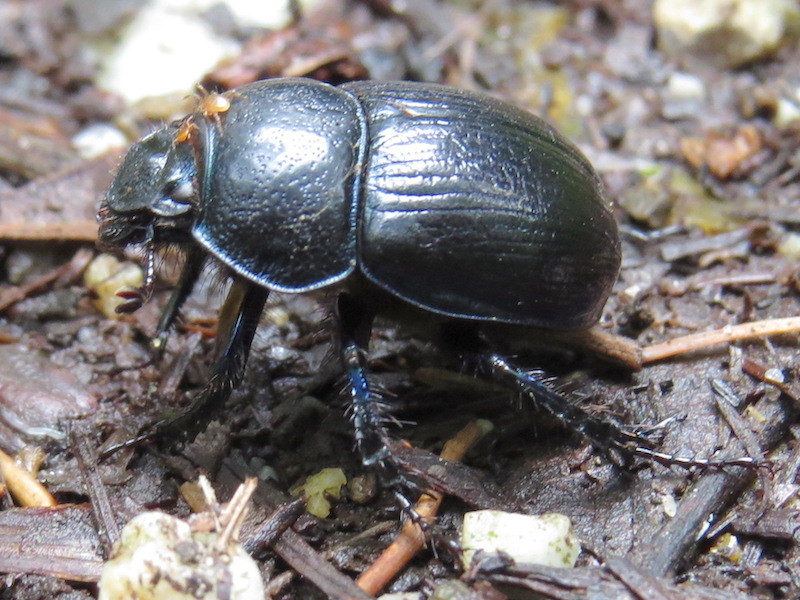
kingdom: Animalia
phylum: Arthropoda
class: Insecta
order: Coleoptera
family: Geotrupidae
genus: Anoplotrupes
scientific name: Anoplotrupes stercorosus
